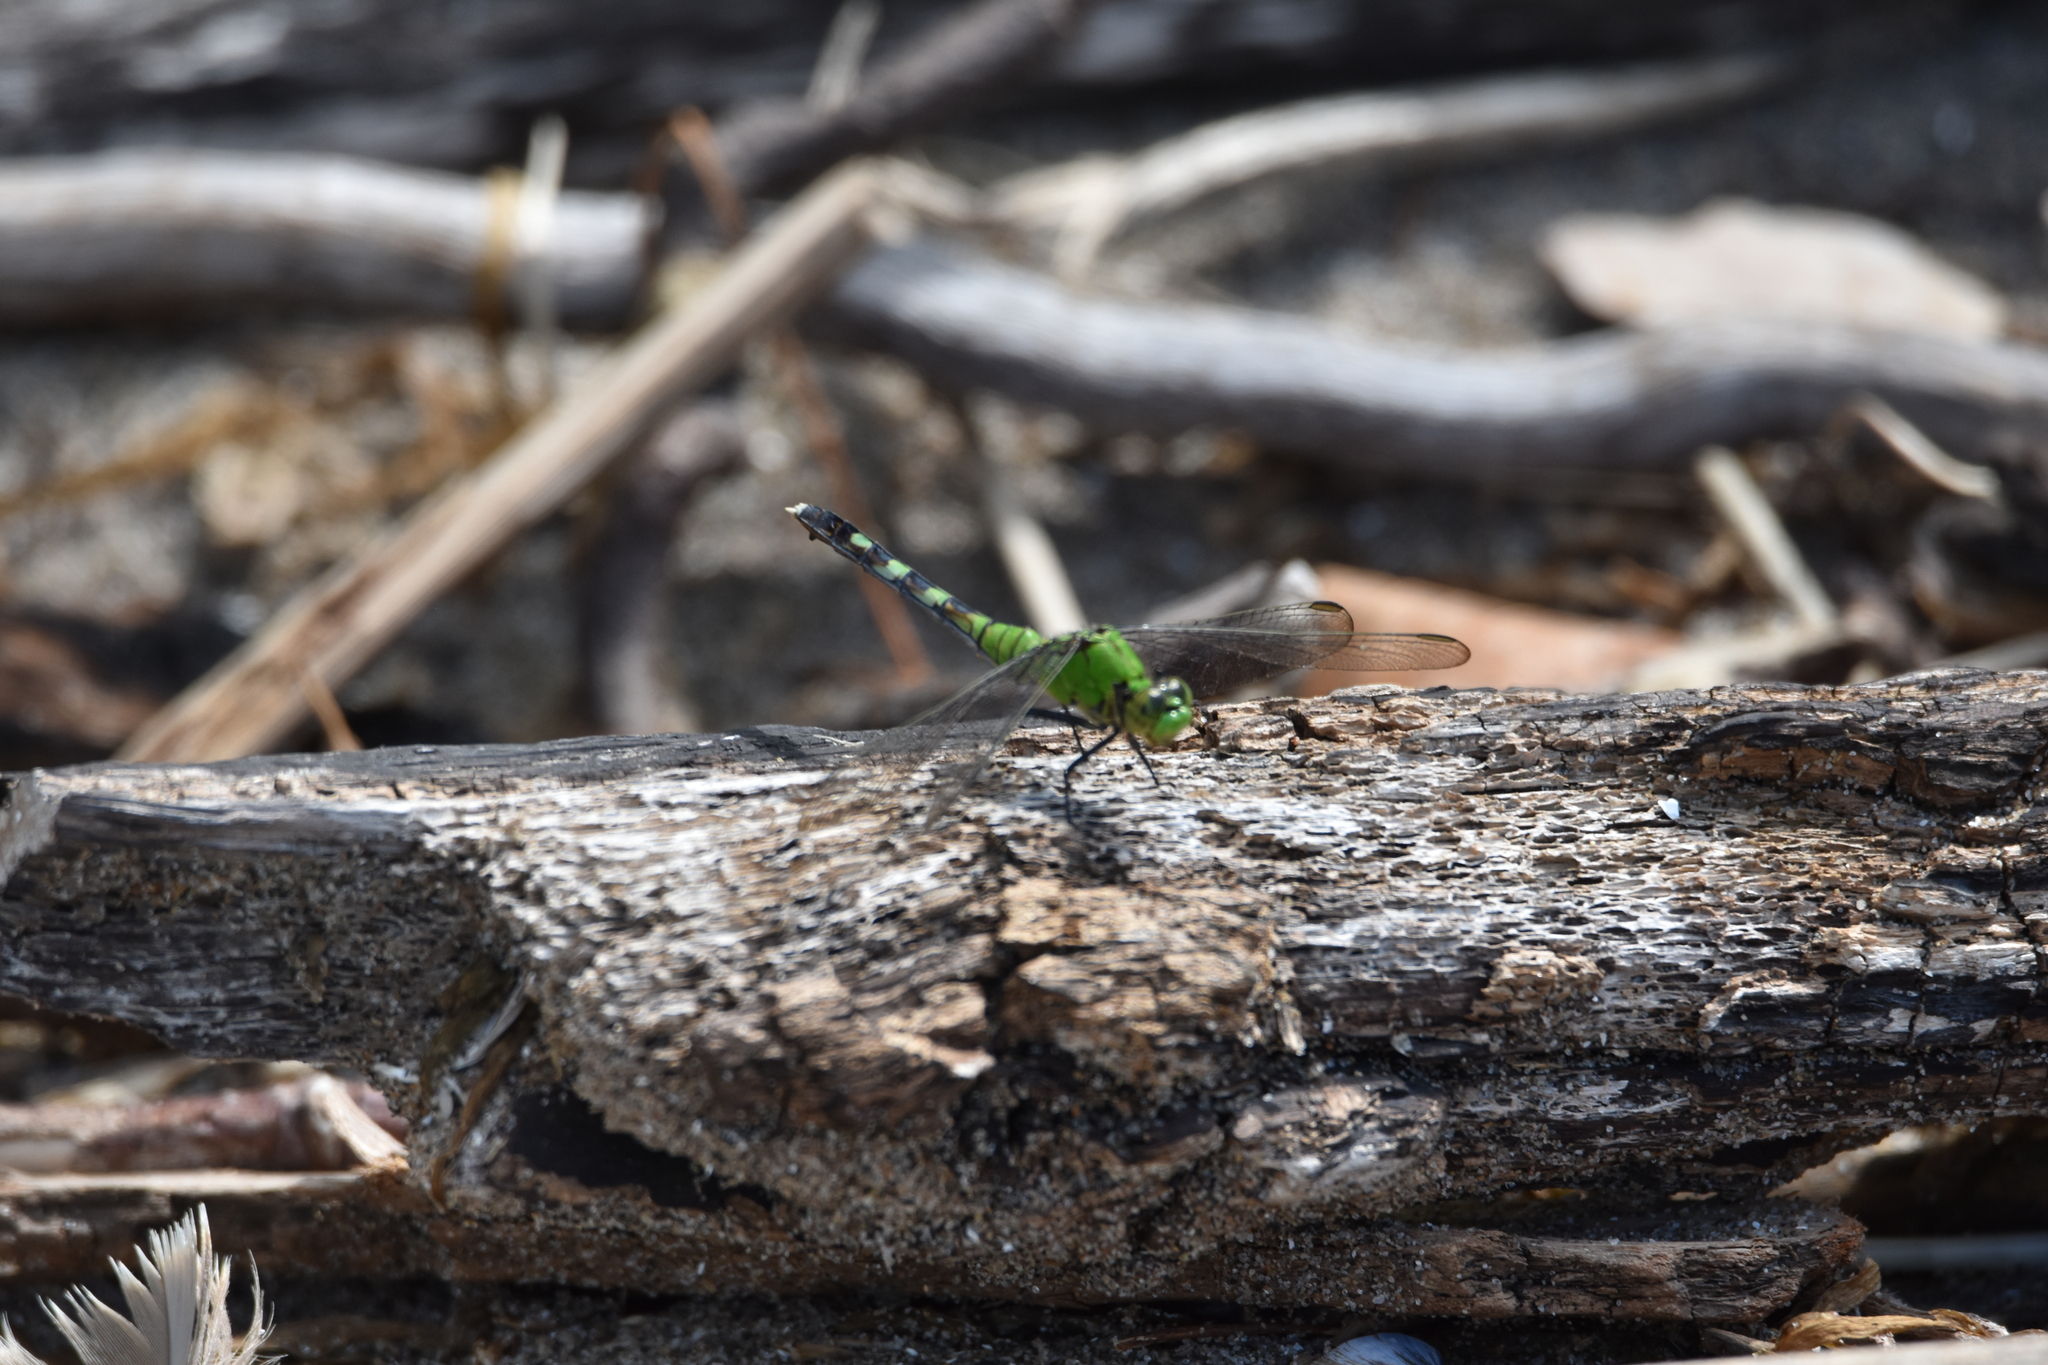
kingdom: Animalia
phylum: Arthropoda
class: Insecta
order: Odonata
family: Libellulidae
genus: Erythemis
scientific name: Erythemis simplicicollis
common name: Eastern pondhawk
